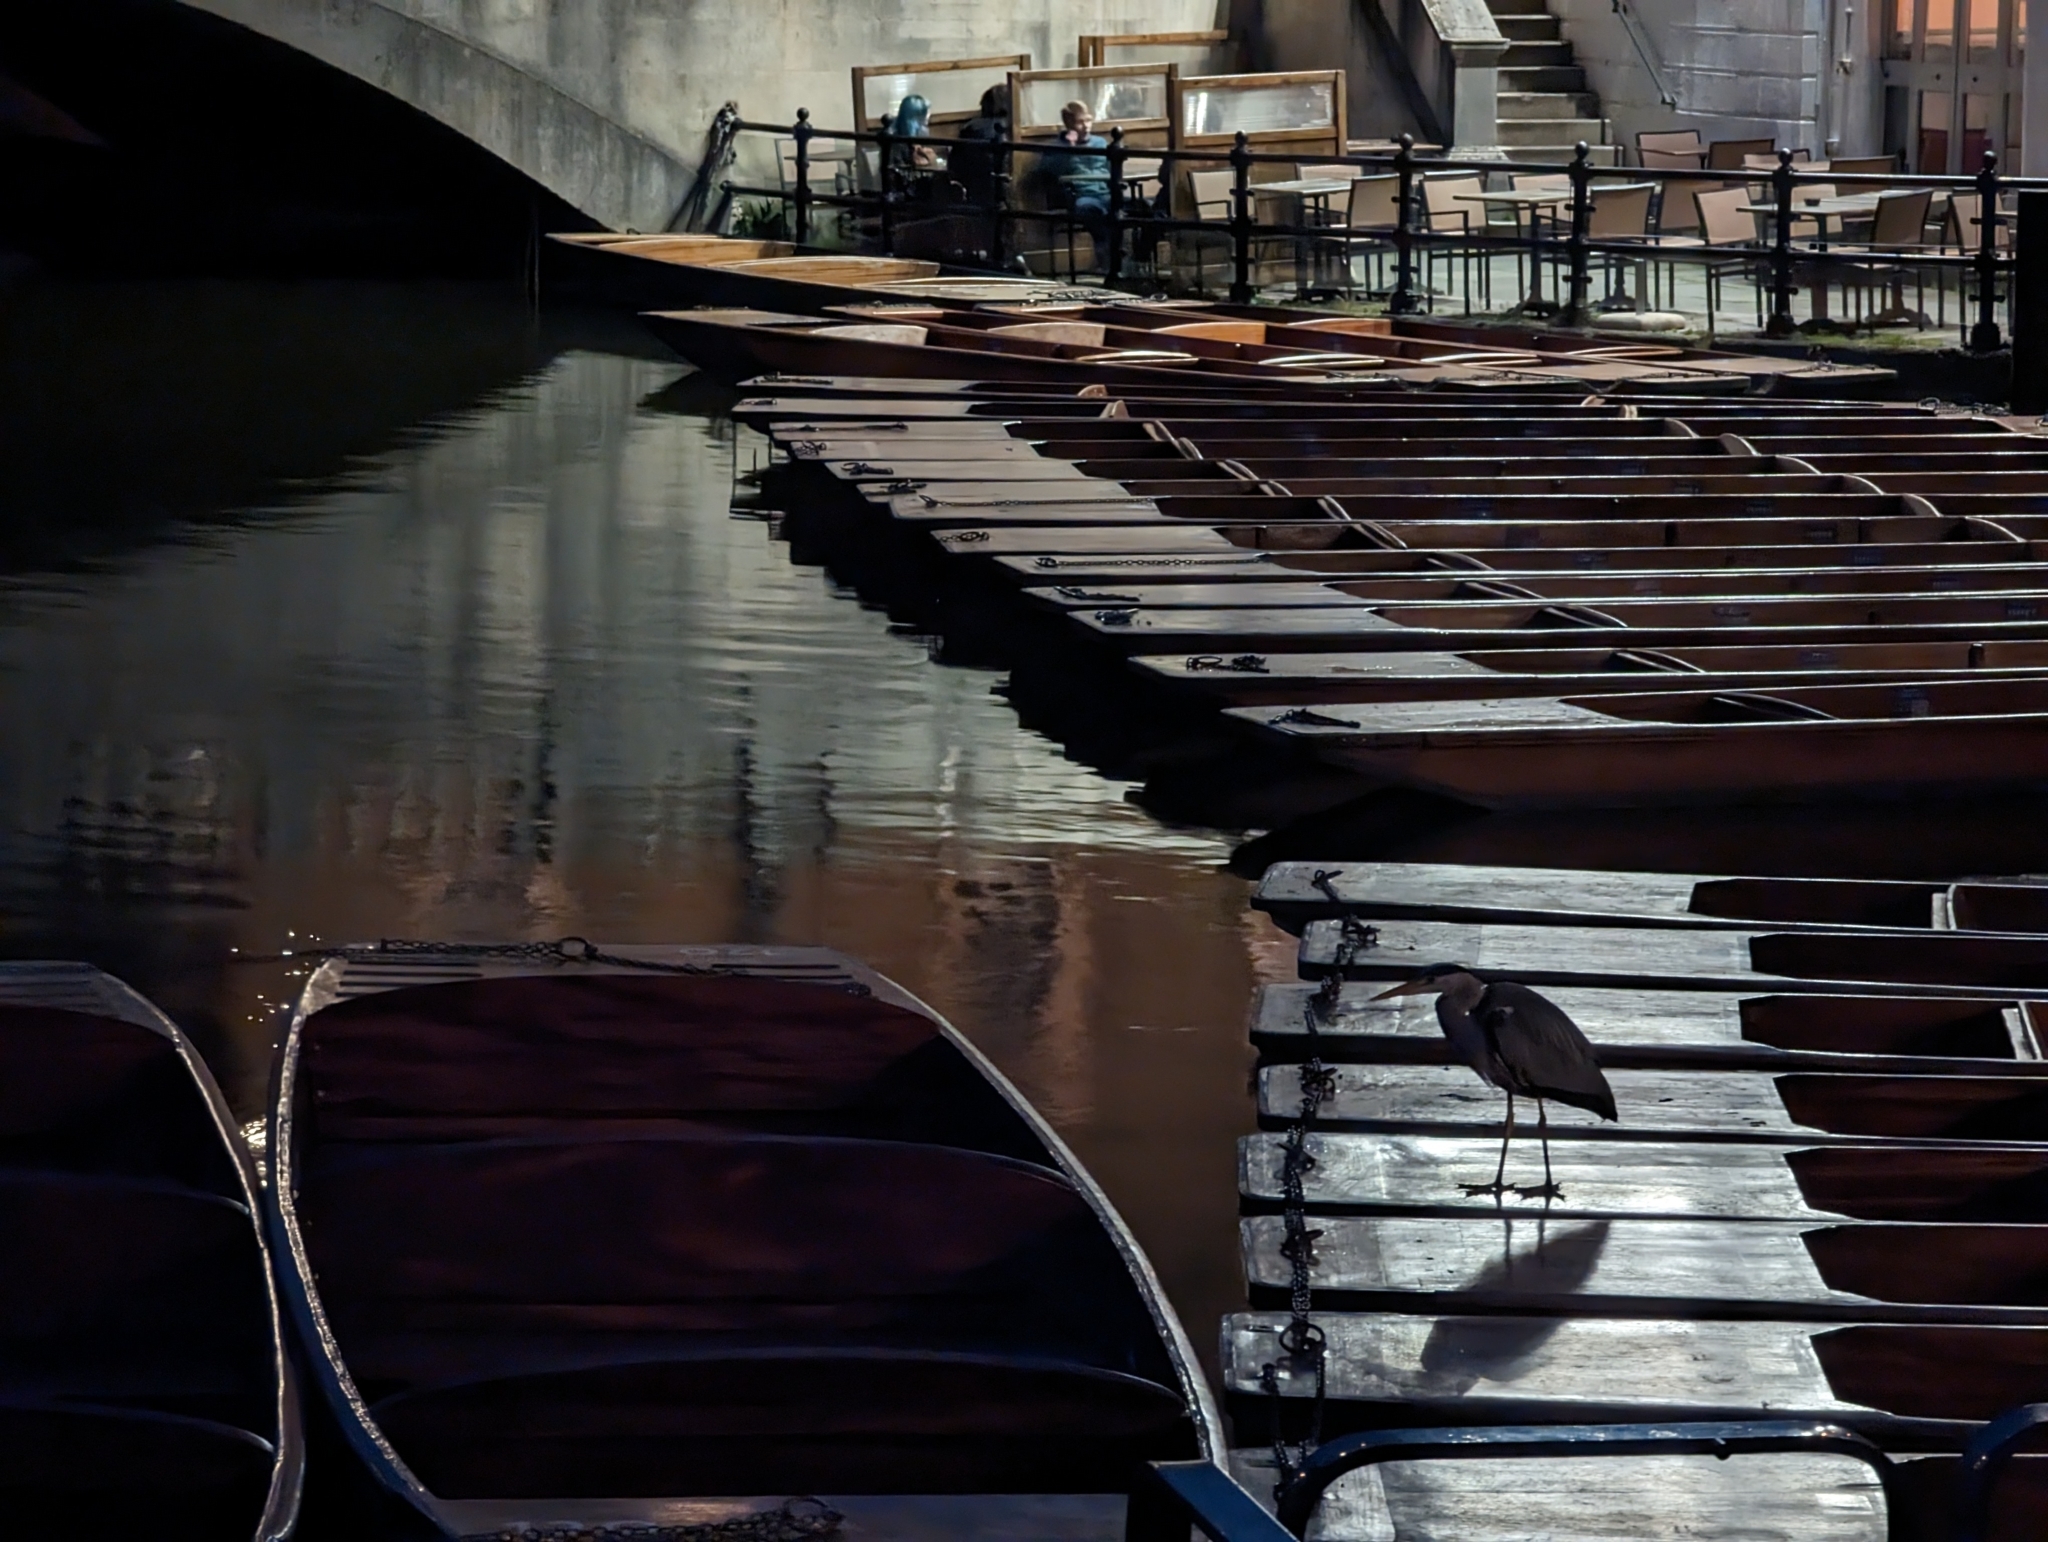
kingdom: Animalia
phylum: Chordata
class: Aves
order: Pelecaniformes
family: Ardeidae
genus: Ardea
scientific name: Ardea cinerea
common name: Grey heron
